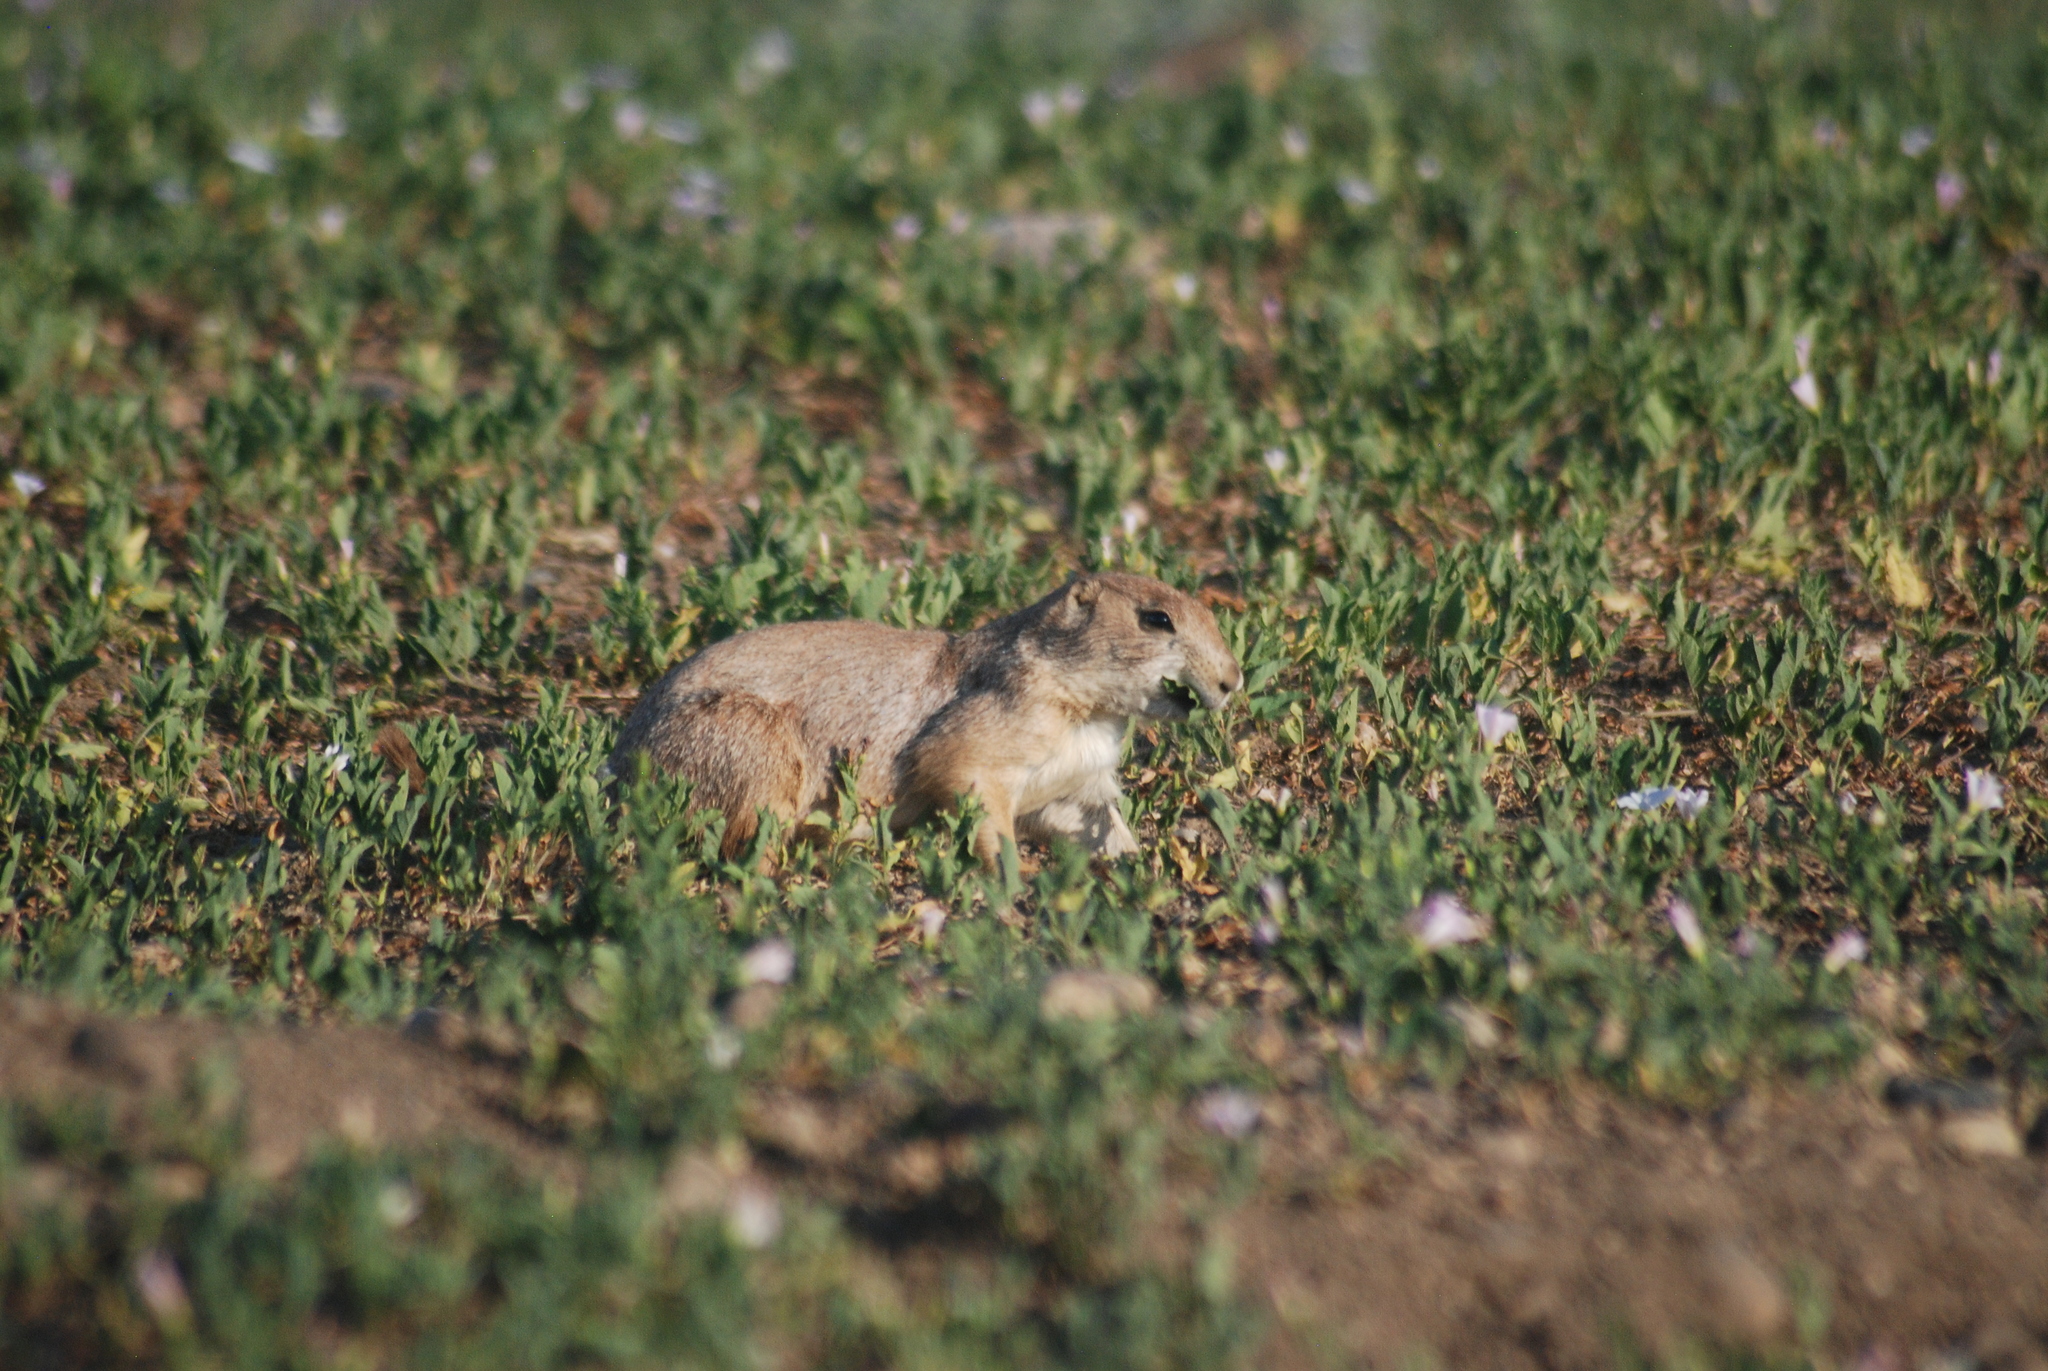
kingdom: Animalia
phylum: Chordata
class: Mammalia
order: Rodentia
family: Sciuridae
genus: Cynomys
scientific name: Cynomys ludovicianus
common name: Black-tailed prairie dog
